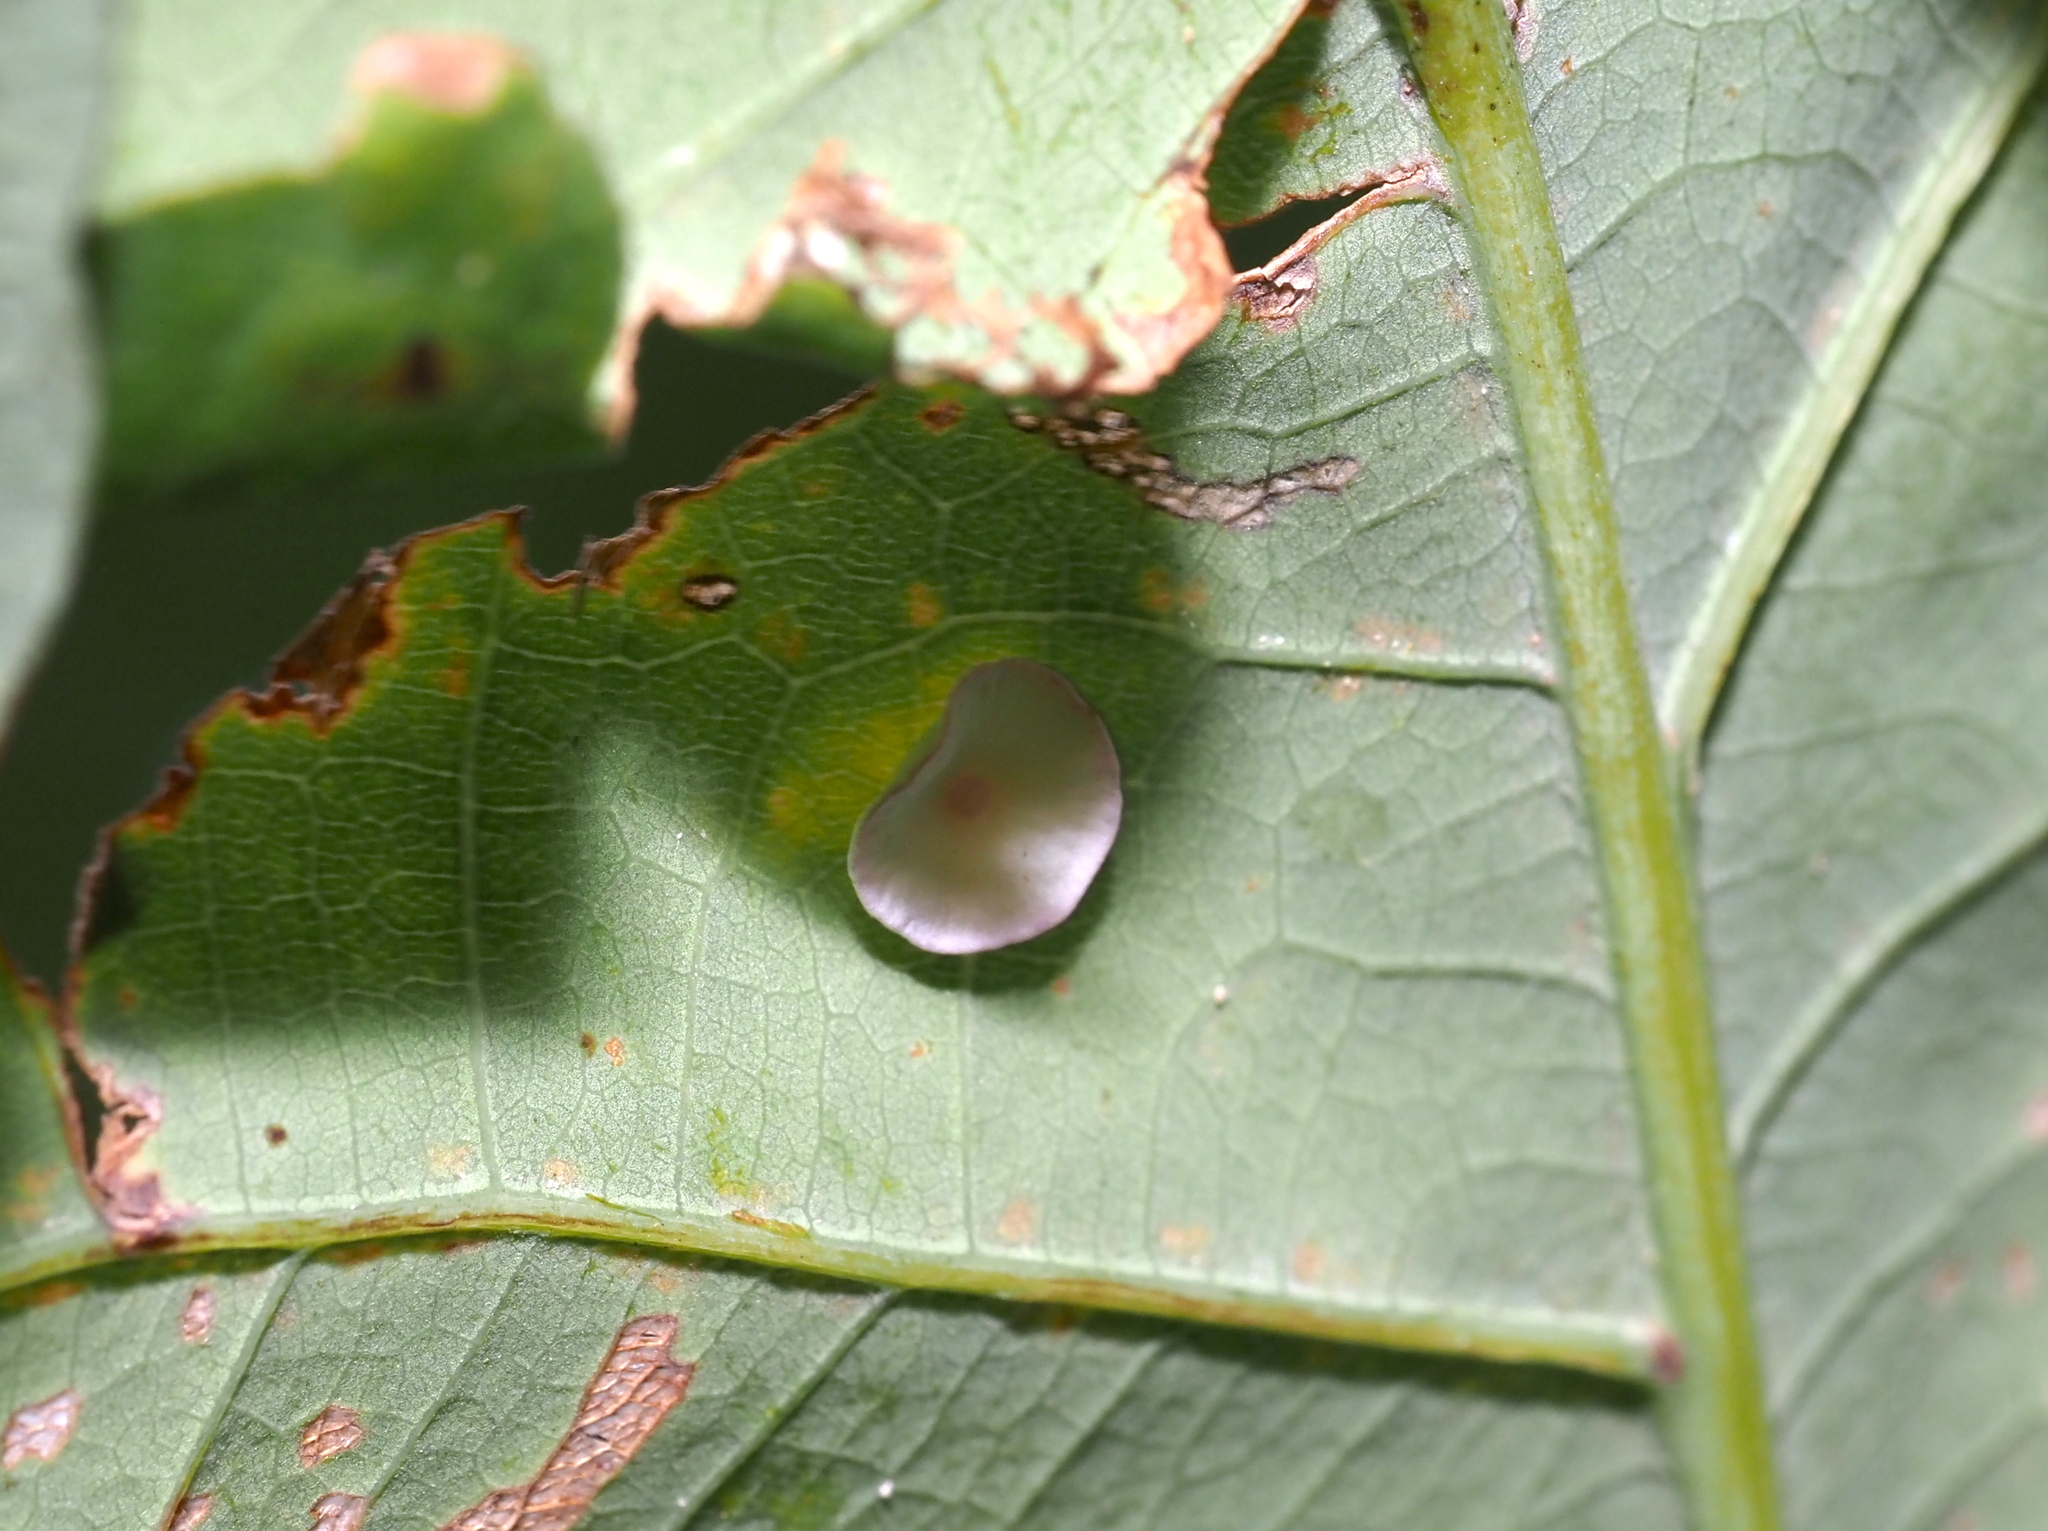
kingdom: Animalia
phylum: Arthropoda
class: Insecta
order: Hymenoptera
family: Cynipidae
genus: Phylloteras
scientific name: Phylloteras poculum
